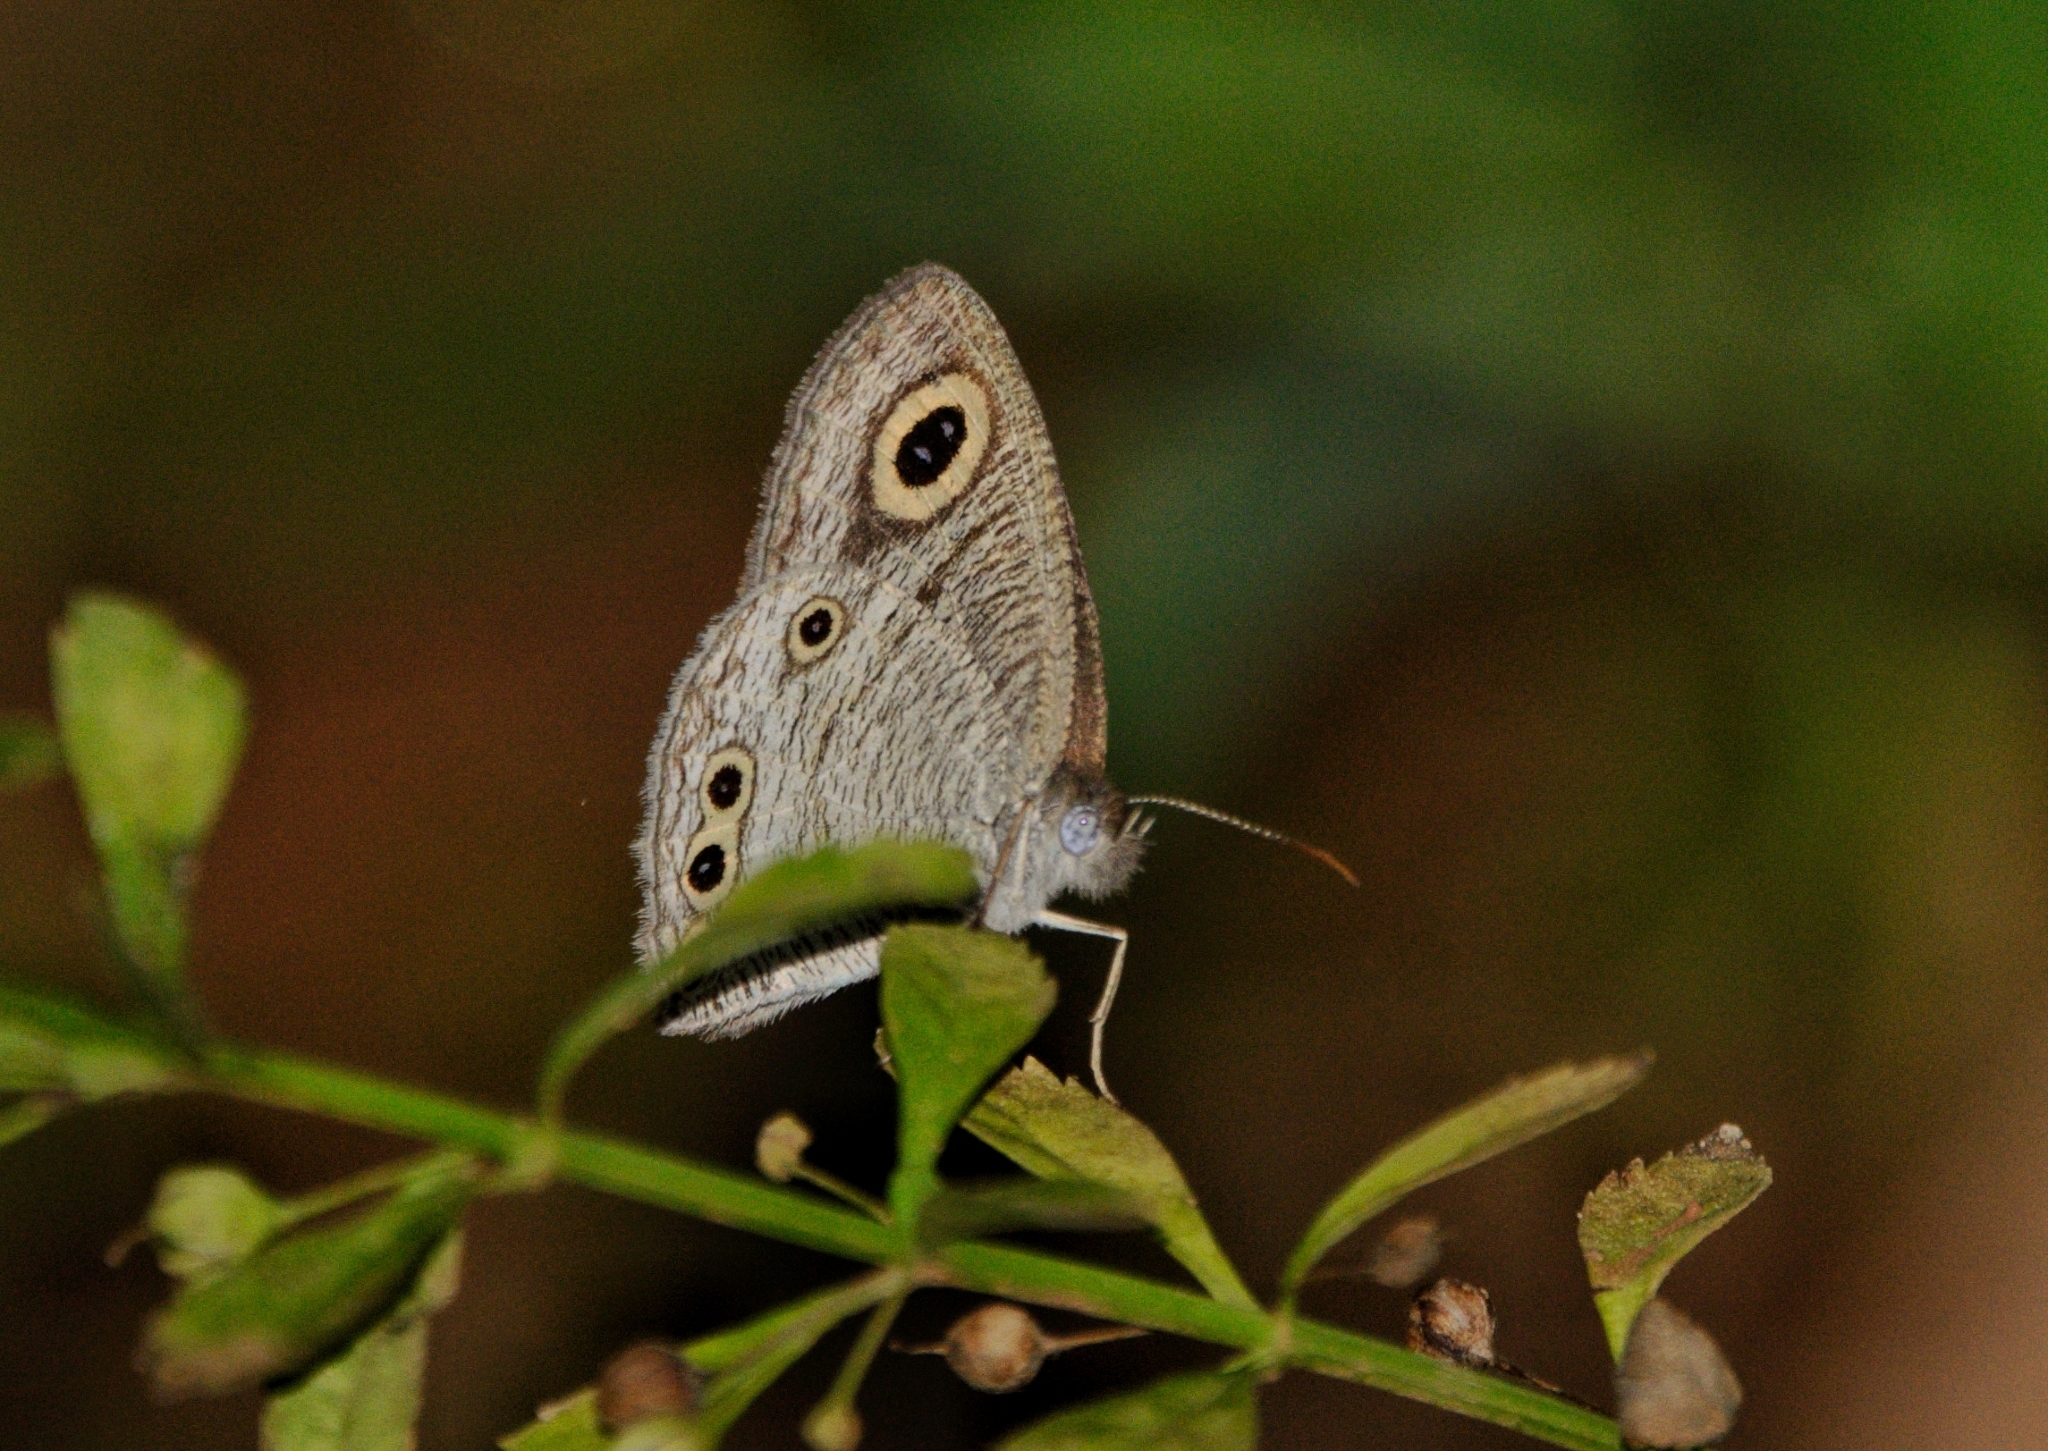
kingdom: Animalia
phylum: Arthropoda
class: Insecta
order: Lepidoptera
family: Nymphalidae
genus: Ypthima
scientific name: Ypthima huebneri
